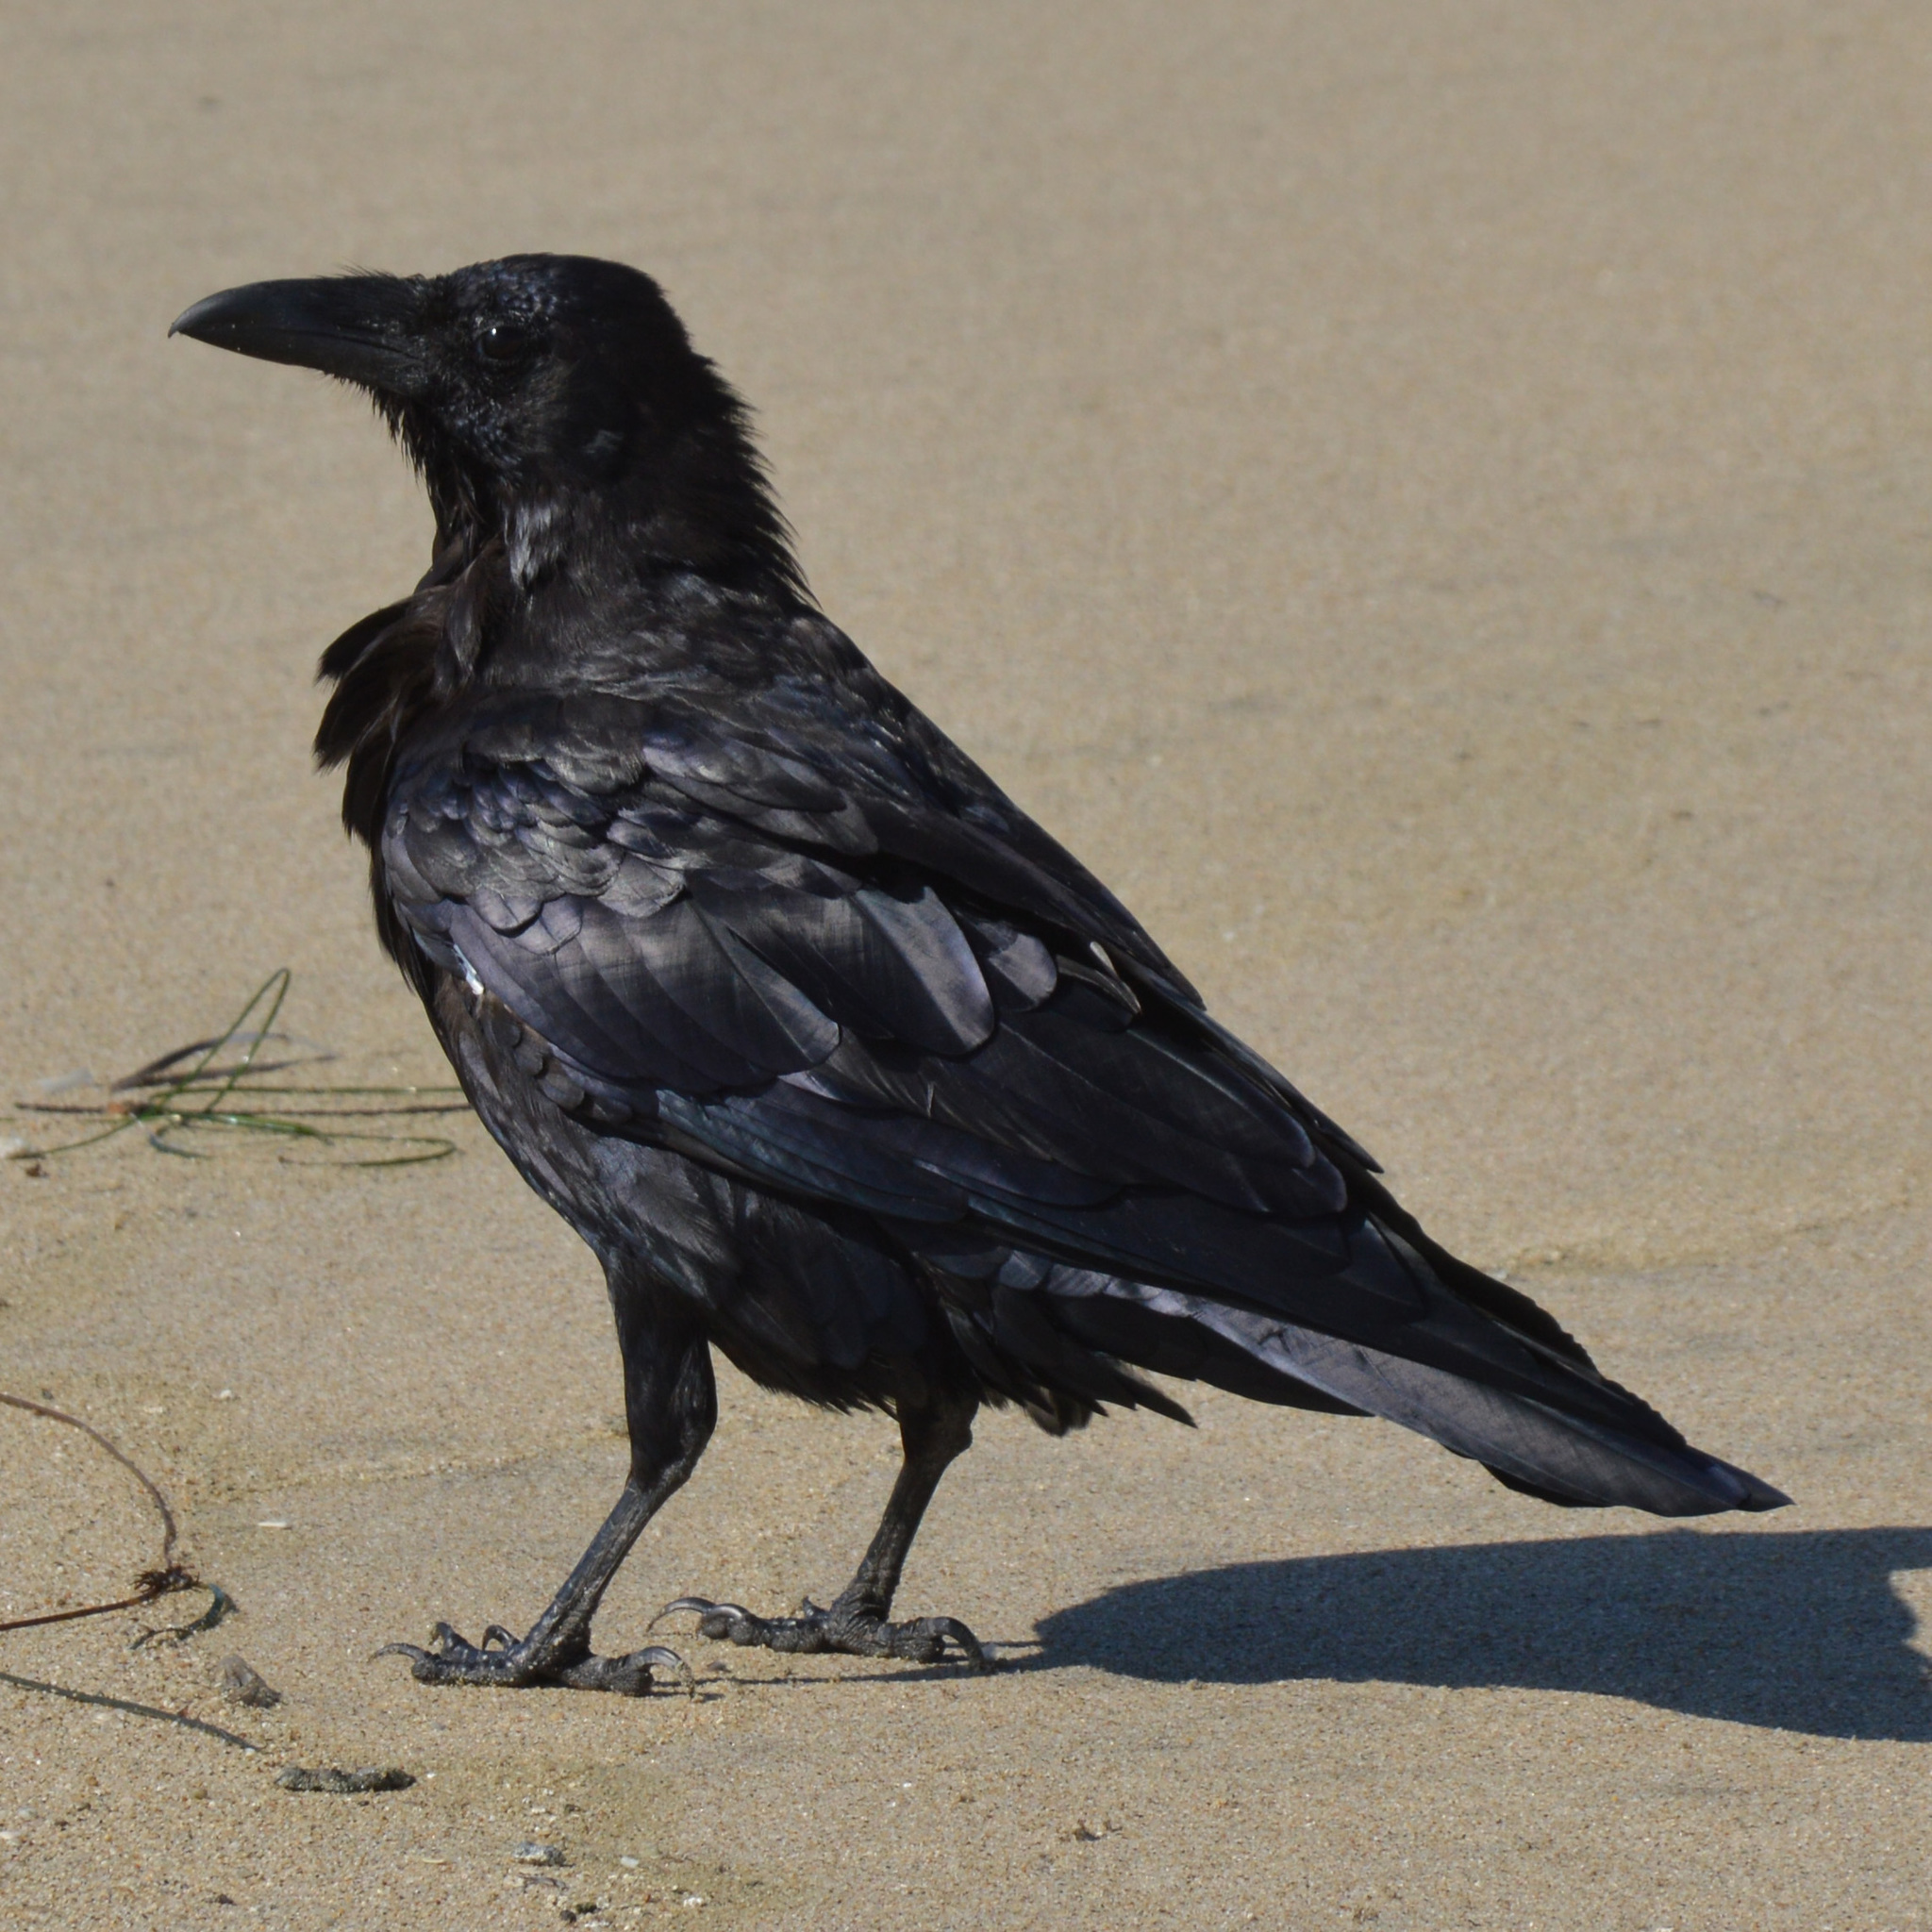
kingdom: Animalia
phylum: Chordata
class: Aves
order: Passeriformes
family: Corvidae
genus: Corvus
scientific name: Corvus corax
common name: Common raven
